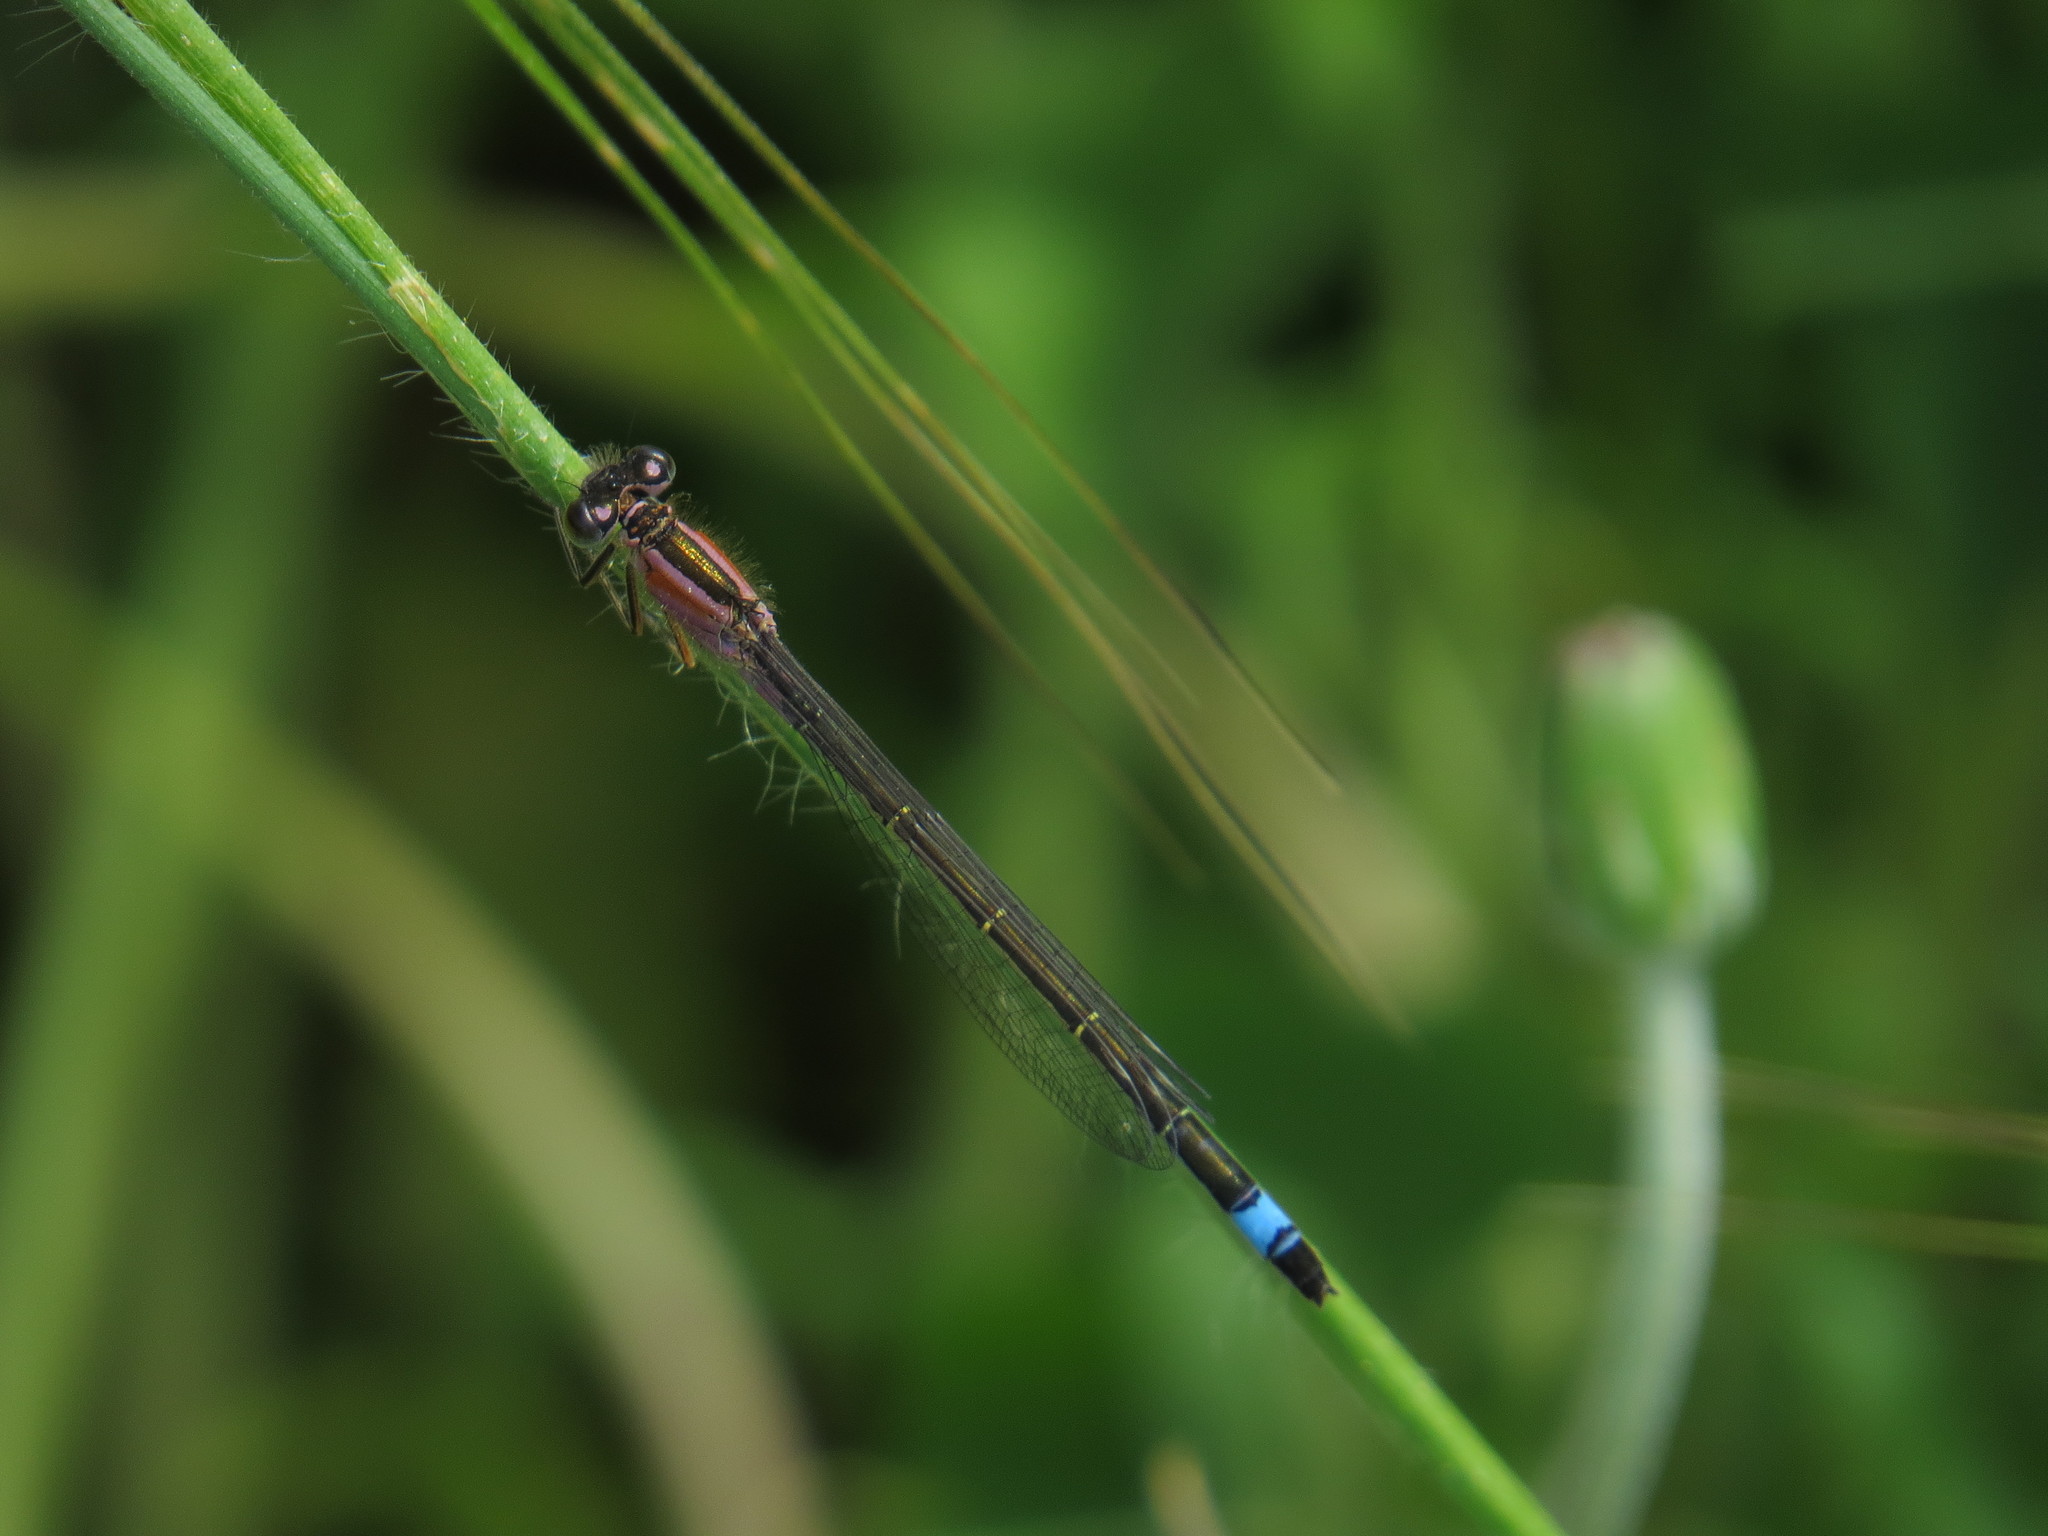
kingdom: Animalia
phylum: Arthropoda
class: Insecta
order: Odonata
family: Coenagrionidae
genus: Ischnura
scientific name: Ischnura genei
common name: Island bluetail
